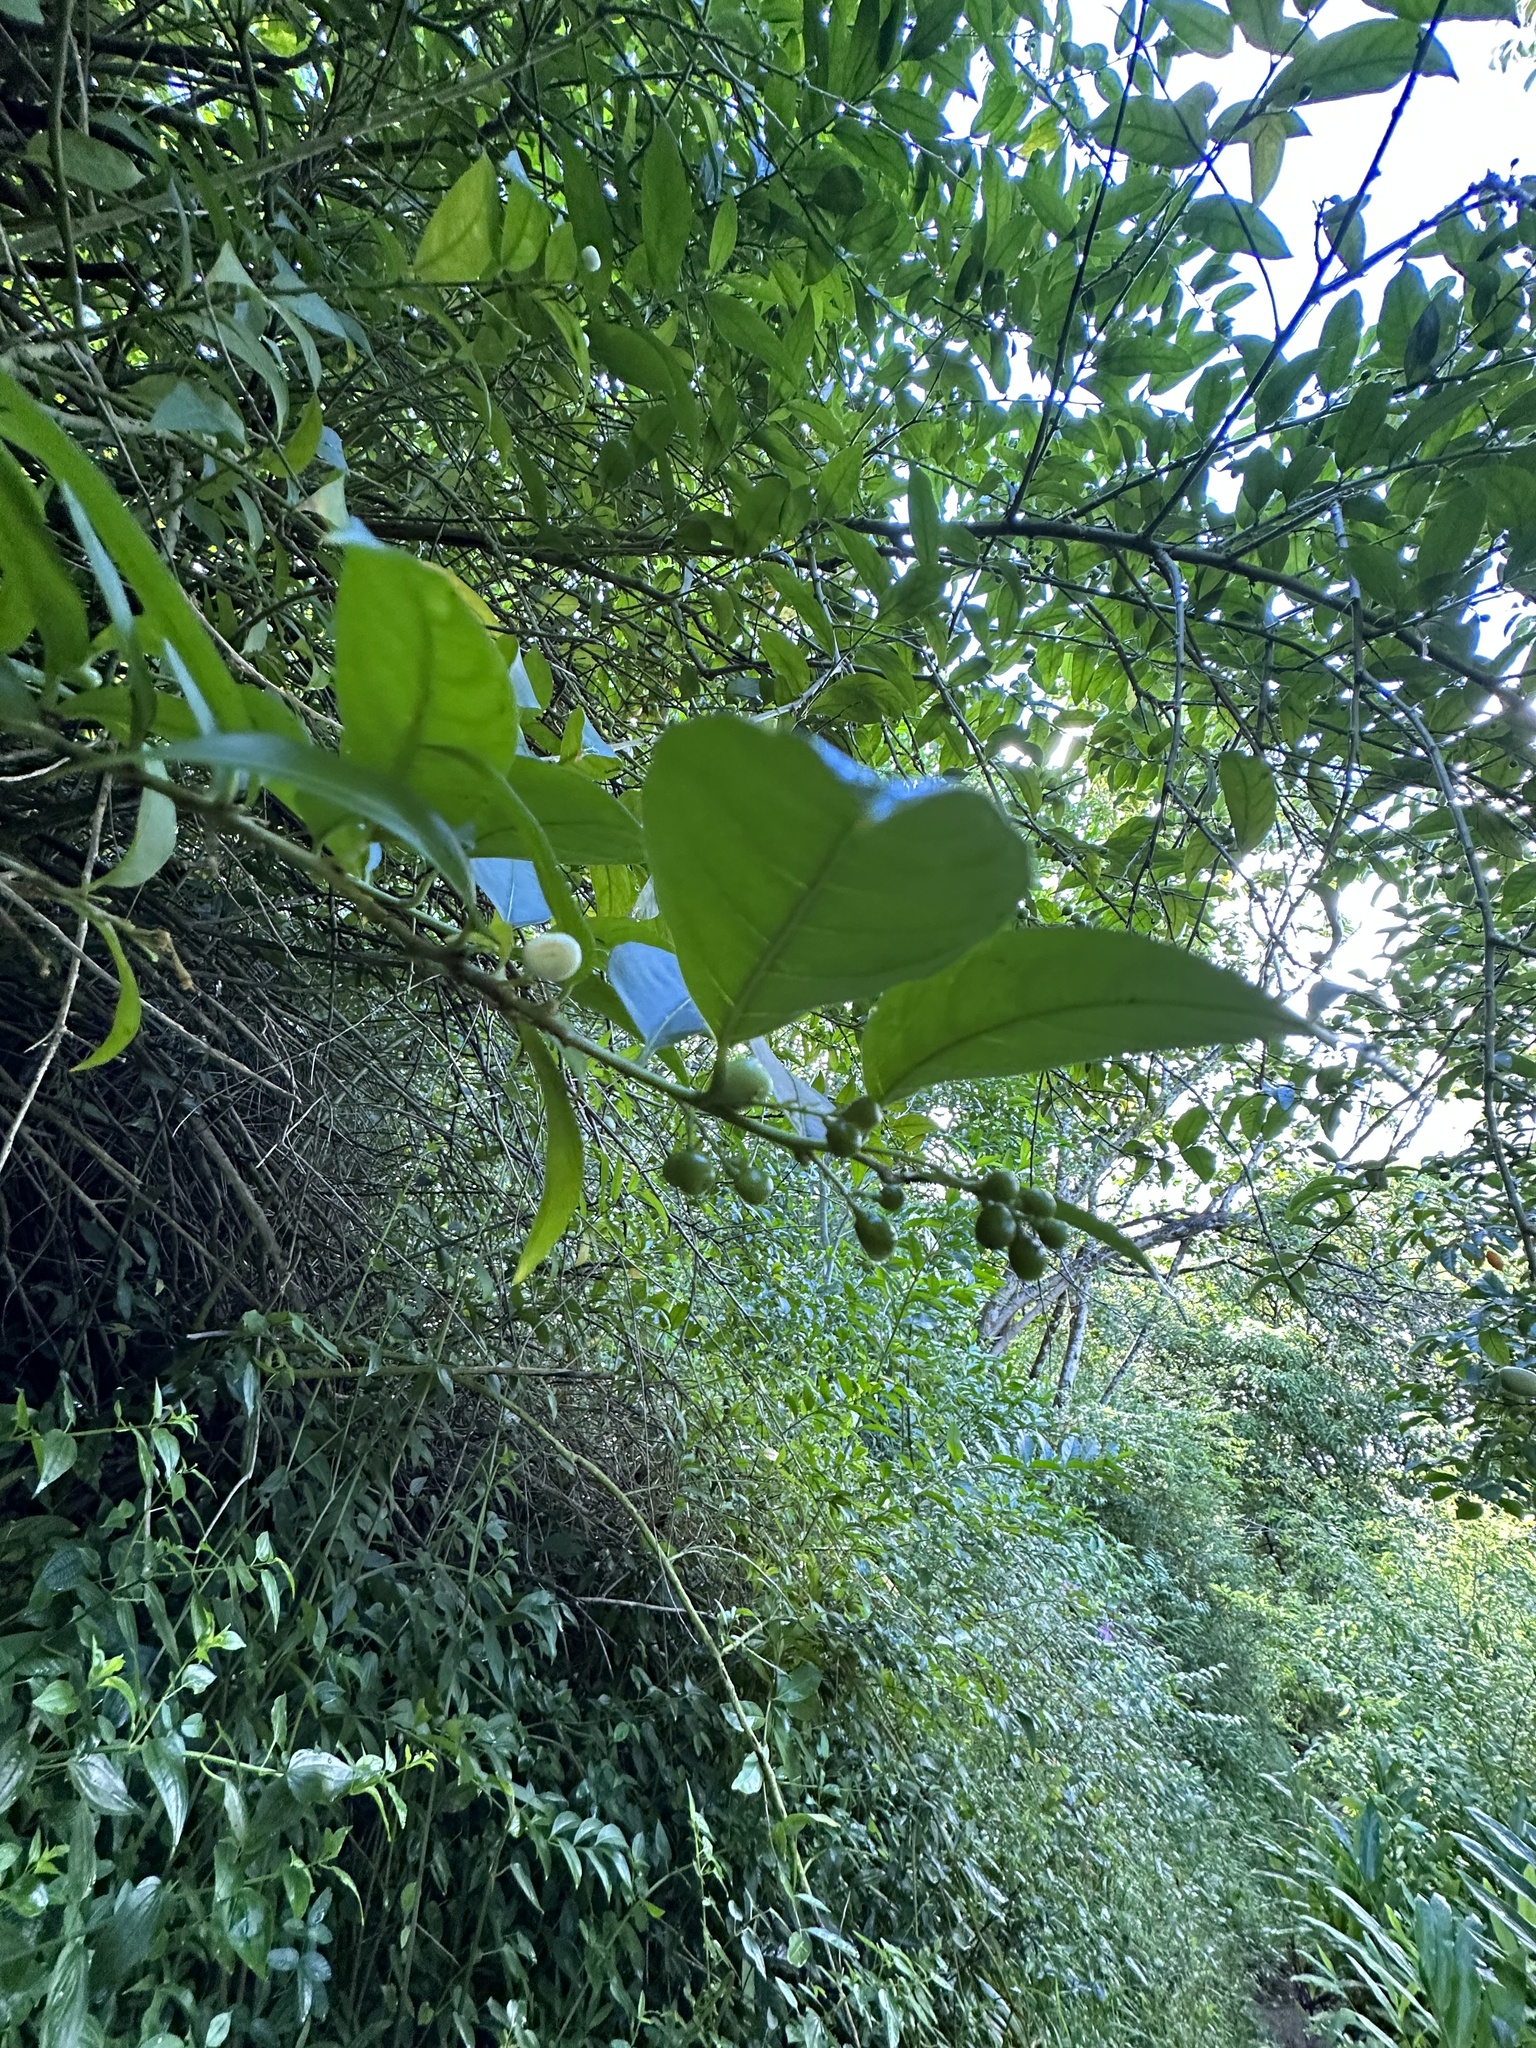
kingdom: Plantae
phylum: Tracheophyta
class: Magnoliopsida
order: Solanales
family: Solanaceae
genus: Cestrum
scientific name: Cestrum nocturnum
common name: Night jessamine
